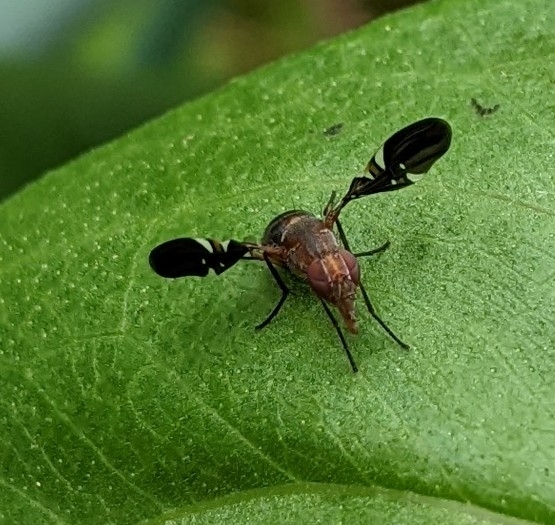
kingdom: Animalia
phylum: Arthropoda
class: Insecta
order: Diptera
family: Ulidiidae
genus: Delphinia
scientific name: Delphinia picta
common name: Common picture-winged fly
